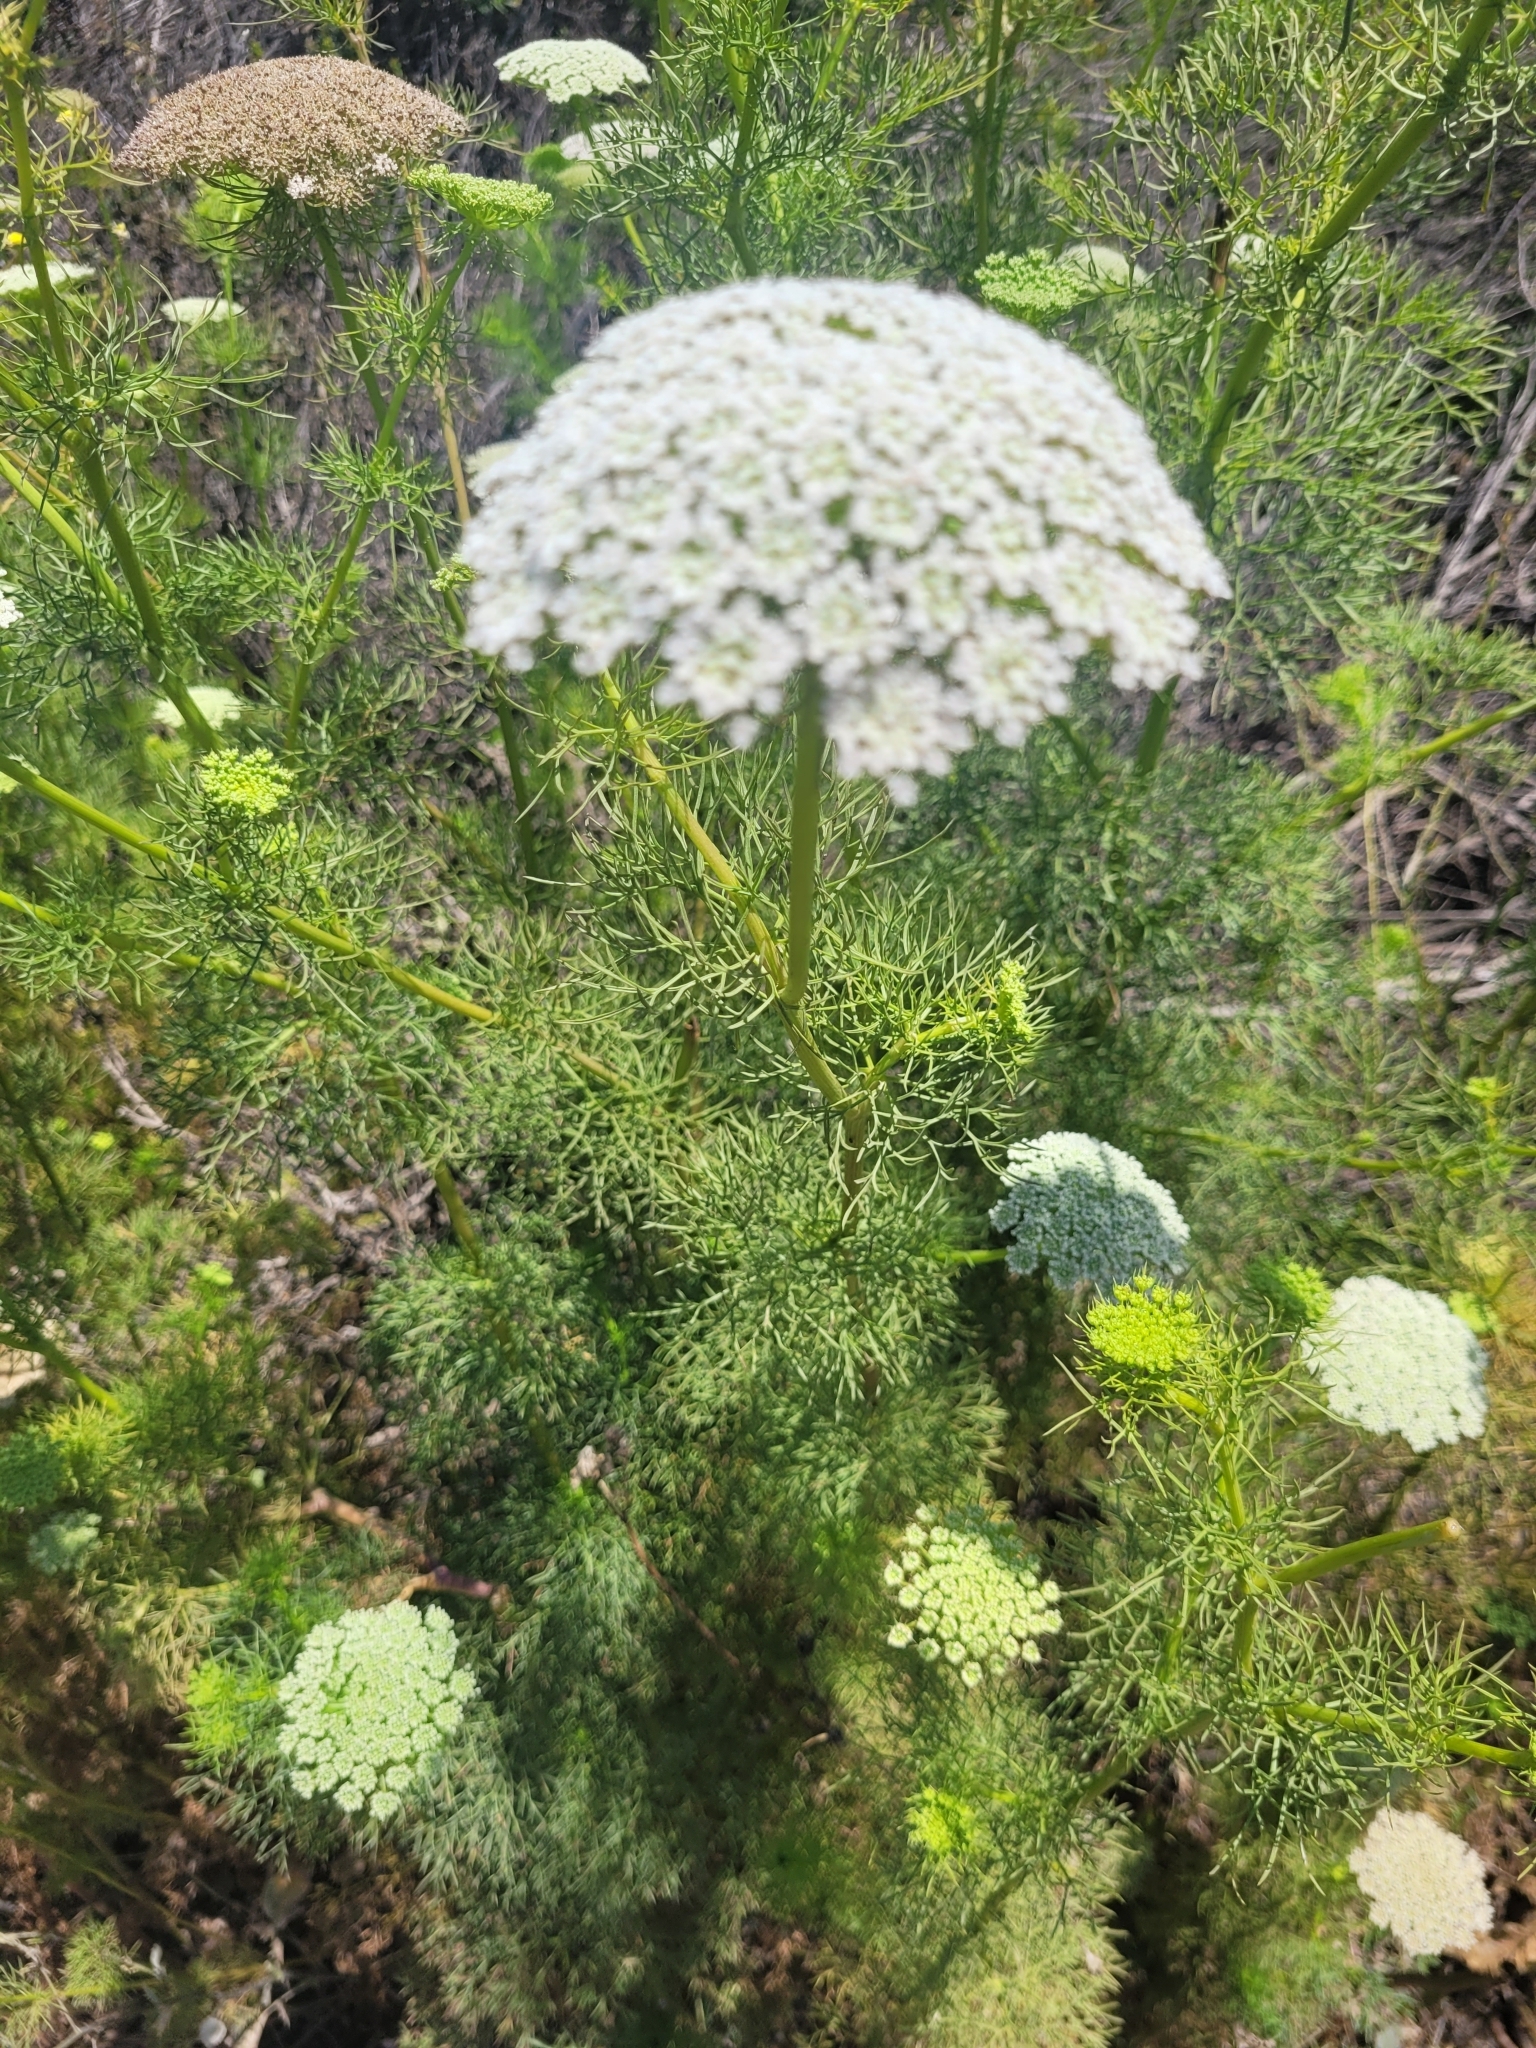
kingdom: Plantae
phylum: Tracheophyta
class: Magnoliopsida
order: Apiales
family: Apiaceae
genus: Visnaga
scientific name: Visnaga daucoides
